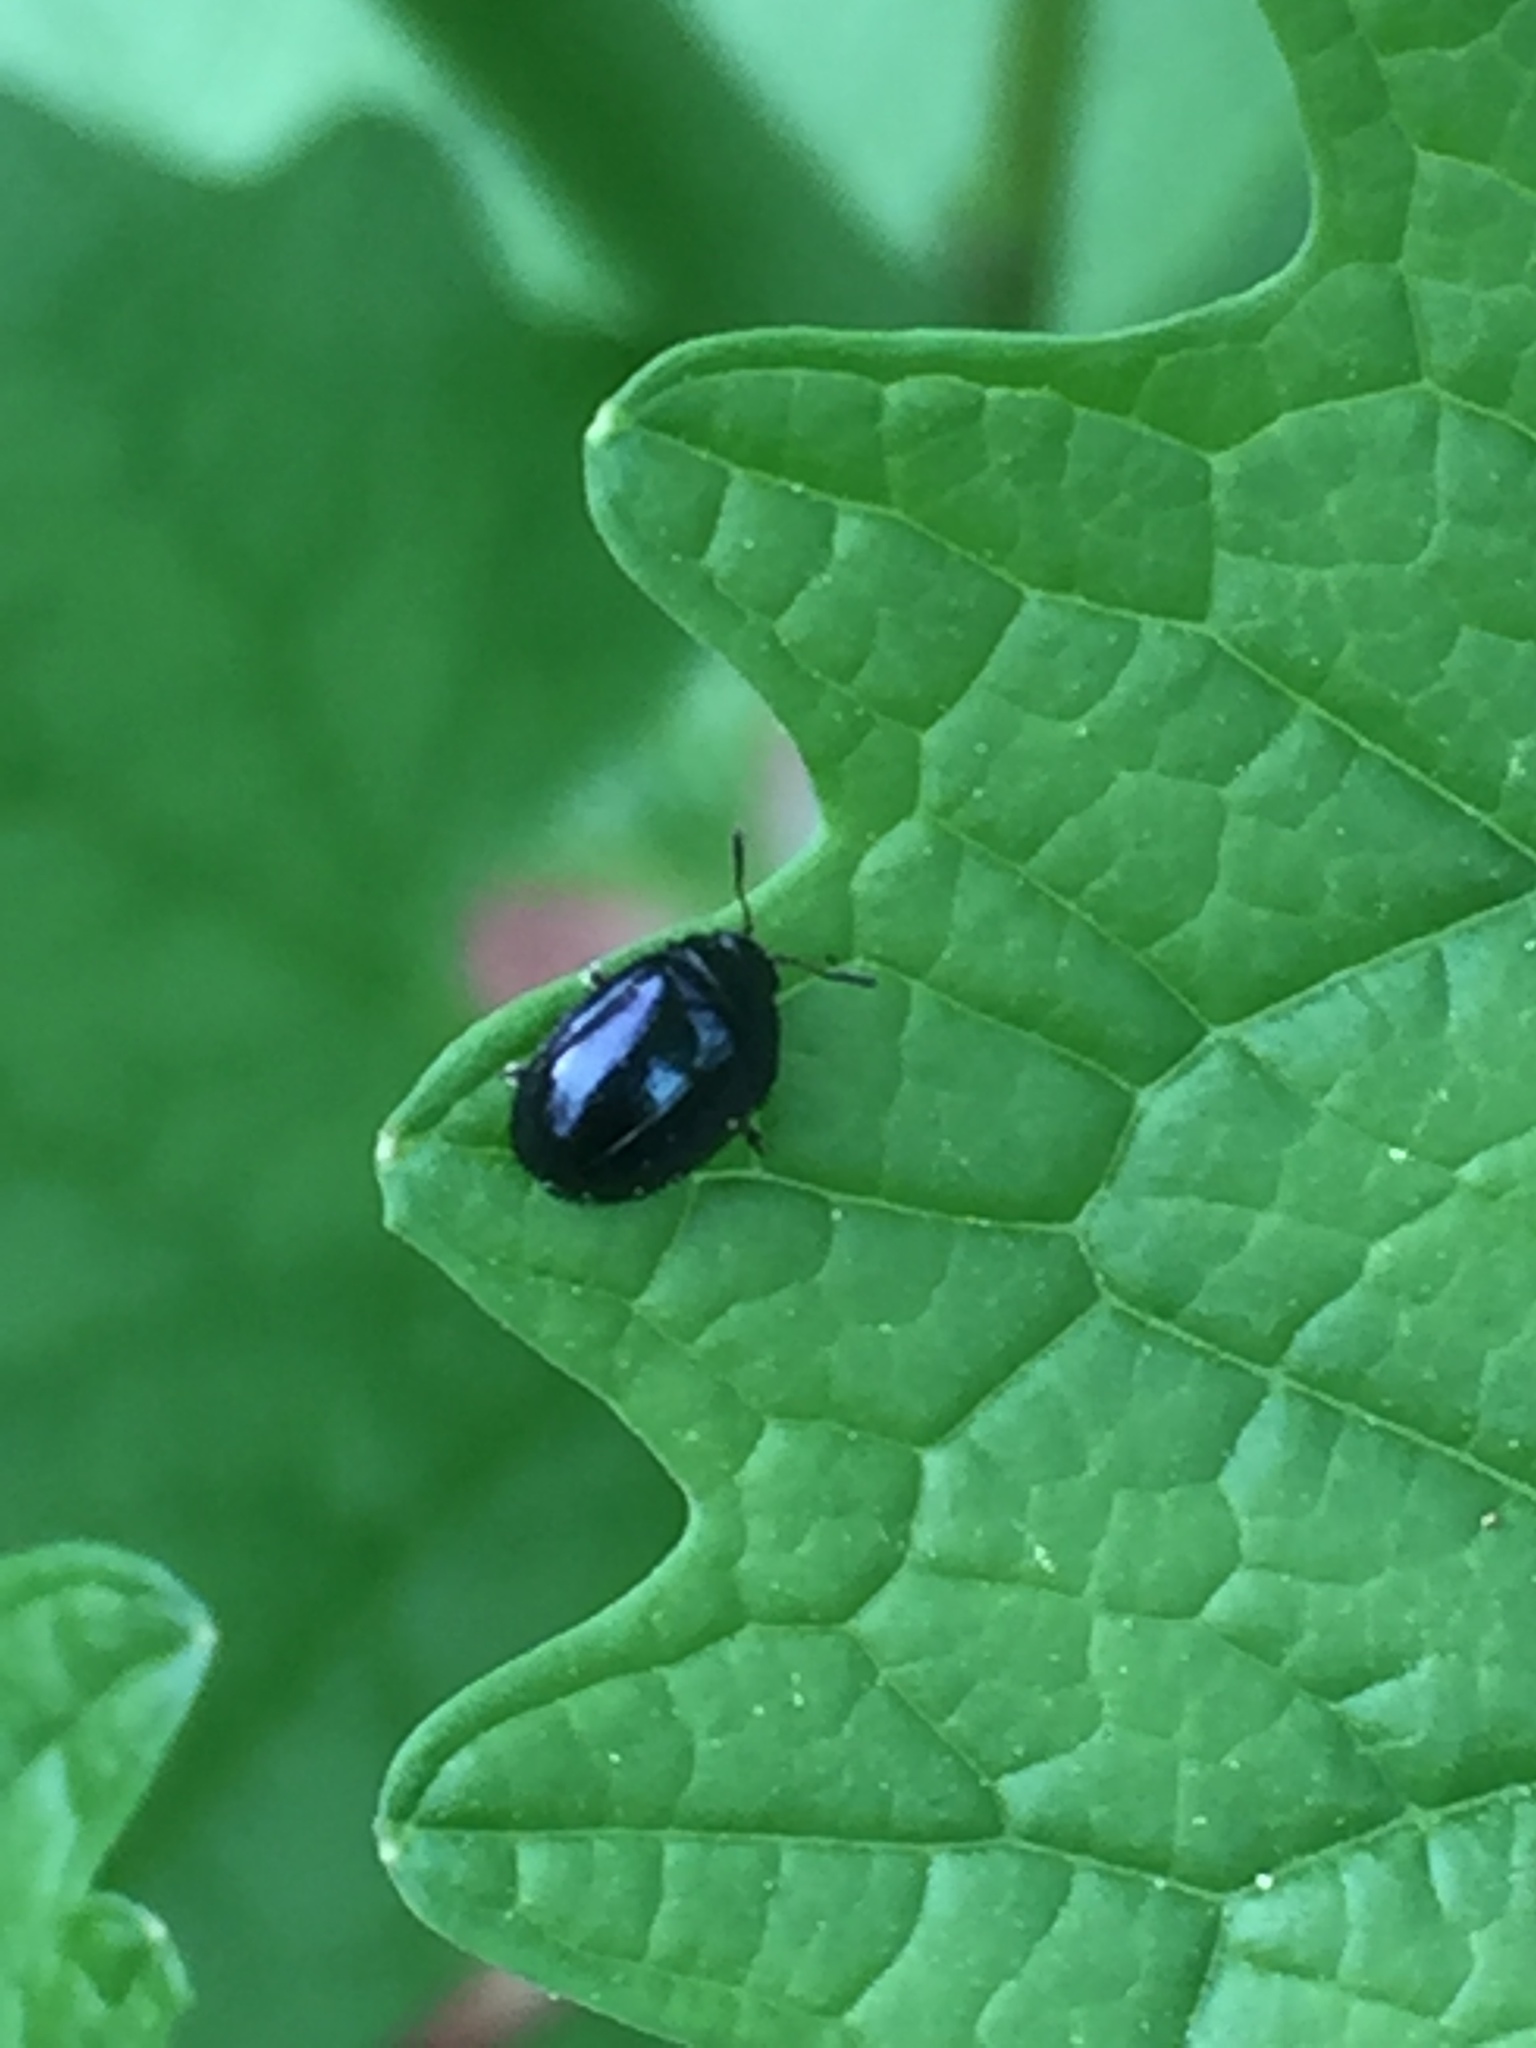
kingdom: Animalia
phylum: Arthropoda
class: Insecta
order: Coleoptera
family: Chrysomelidae
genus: Plagiodera
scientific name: Plagiodera versicolora
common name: Imported willow leaf beetle
